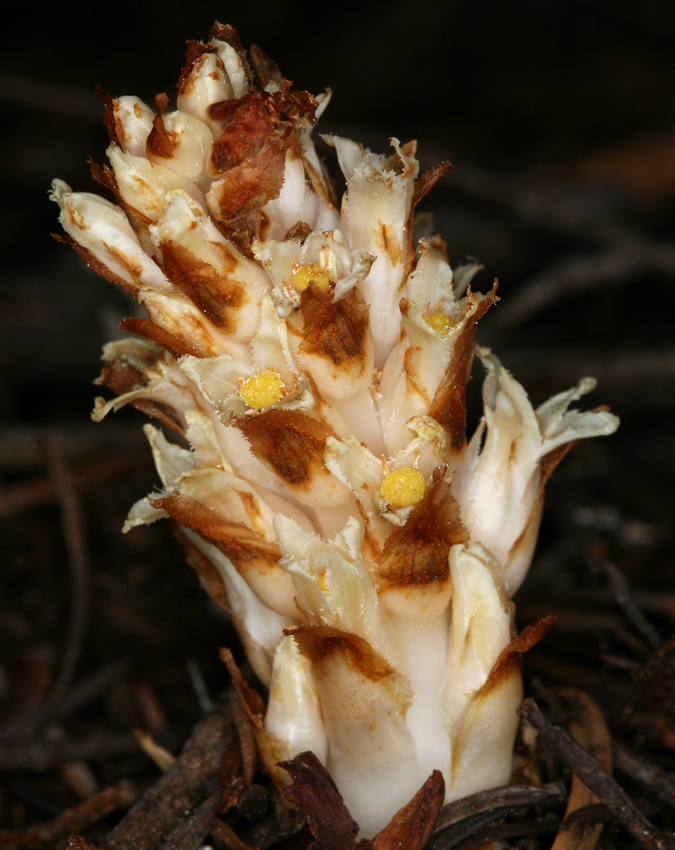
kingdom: Plantae
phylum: Tracheophyta
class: Magnoliopsida
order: Ericales
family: Ericaceae
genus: Pleuricospora
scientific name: Pleuricospora fimbriolata
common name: Fringed pinesap
